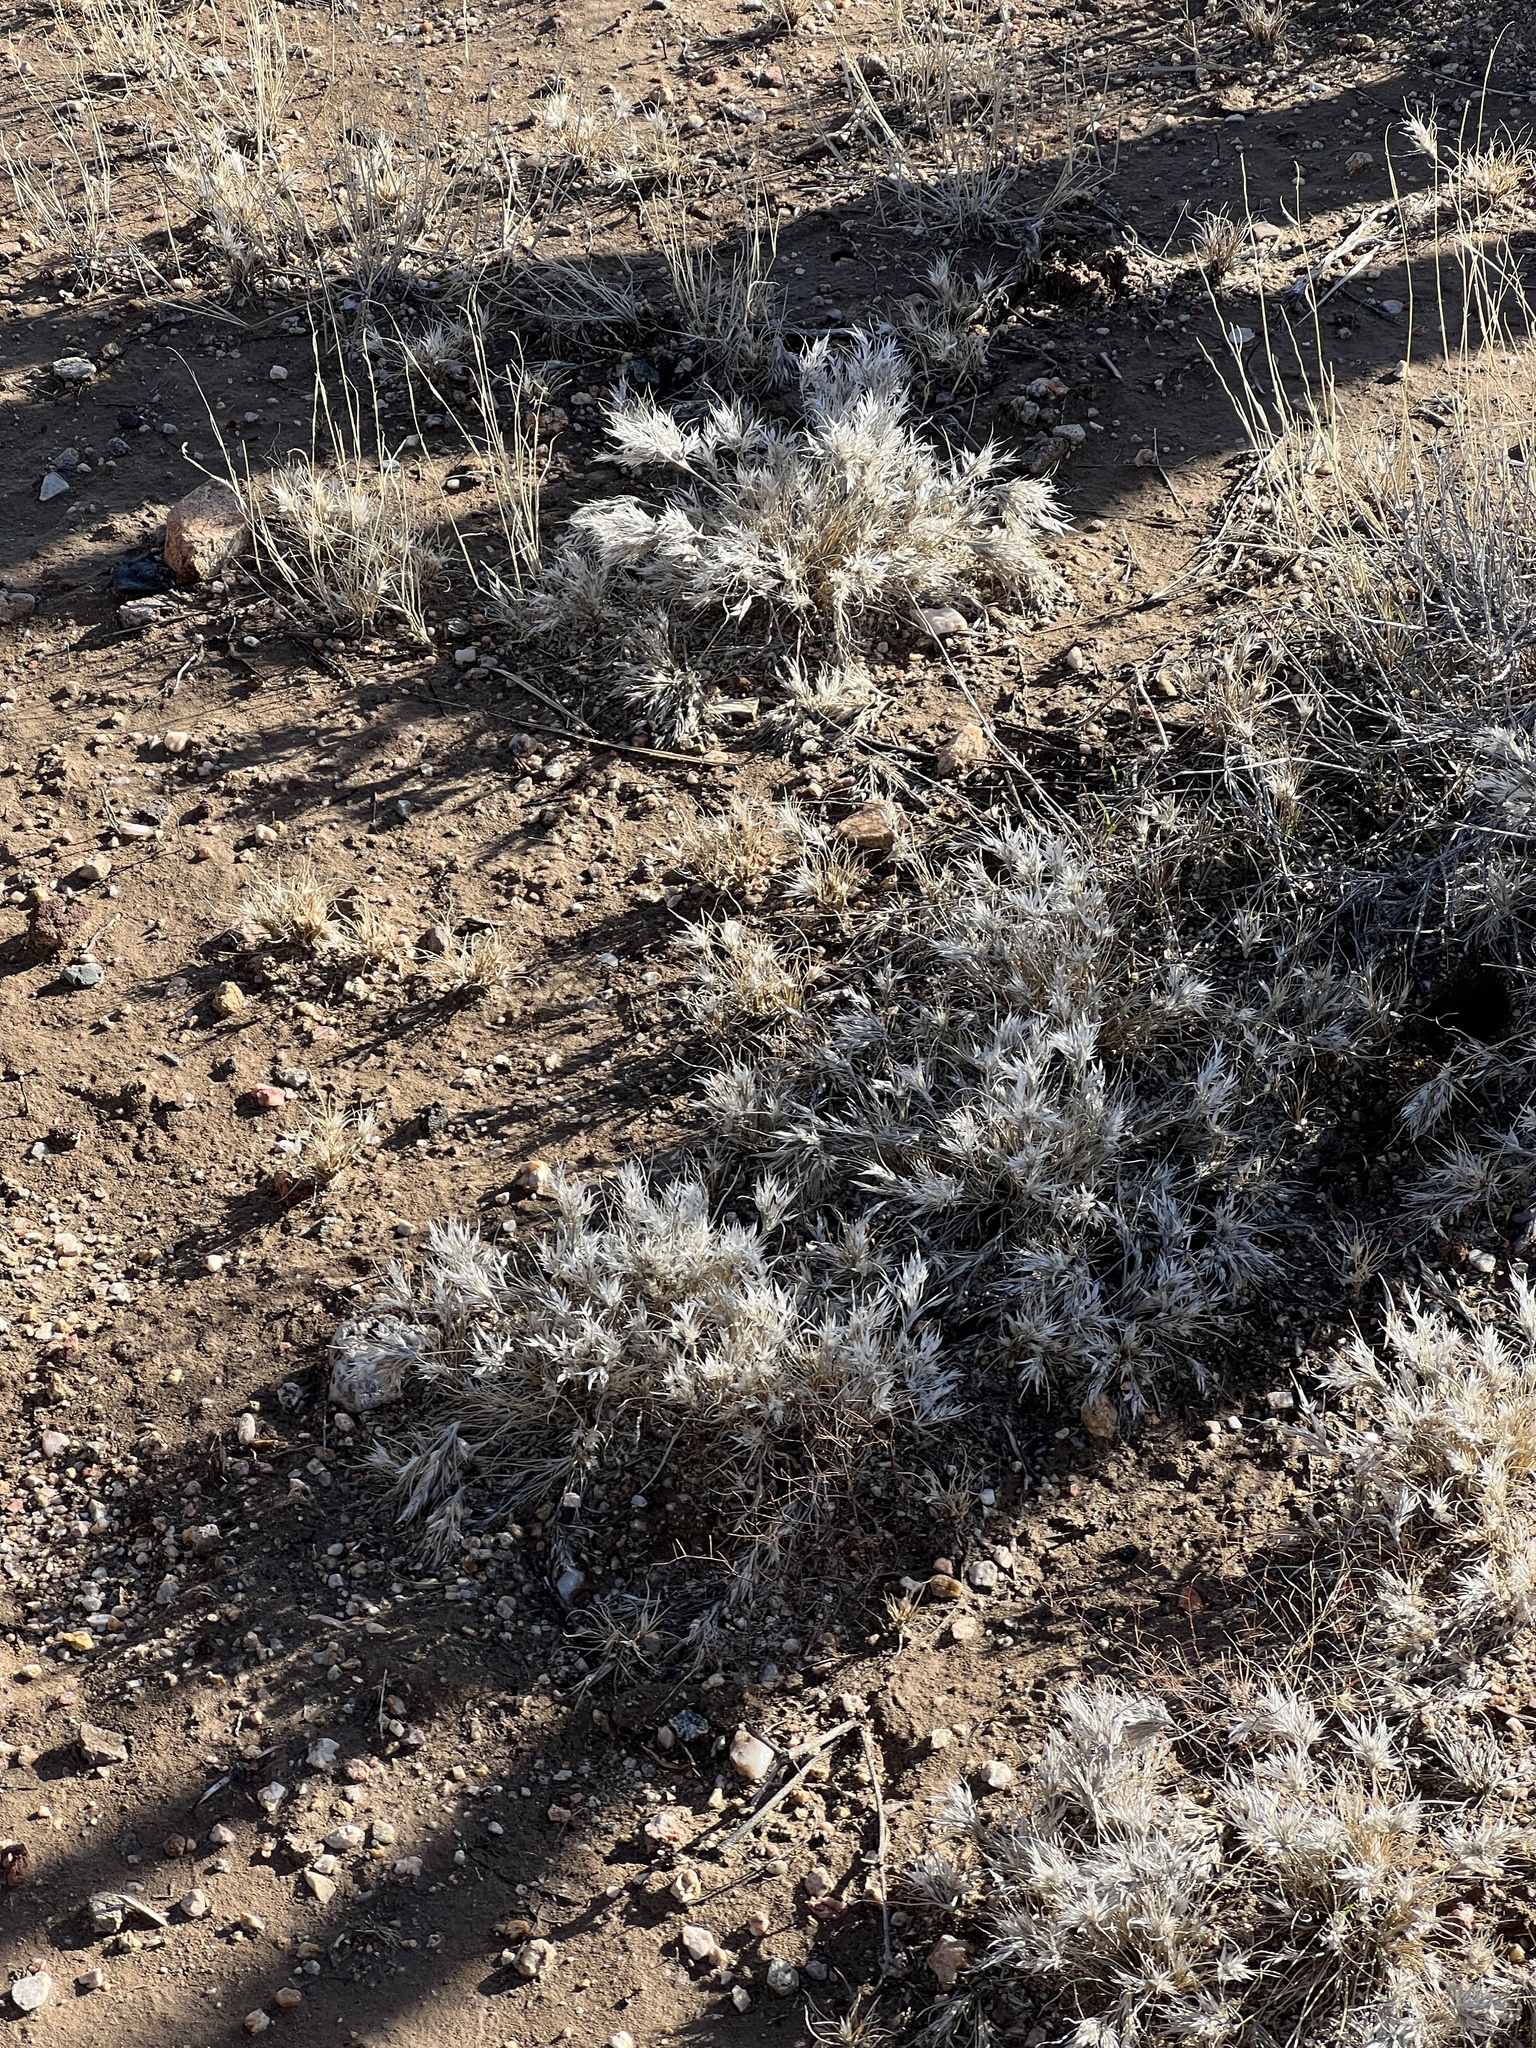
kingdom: Plantae
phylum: Tracheophyta
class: Liliopsida
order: Poales
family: Poaceae
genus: Dasyochloa
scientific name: Dasyochloa pulchella
